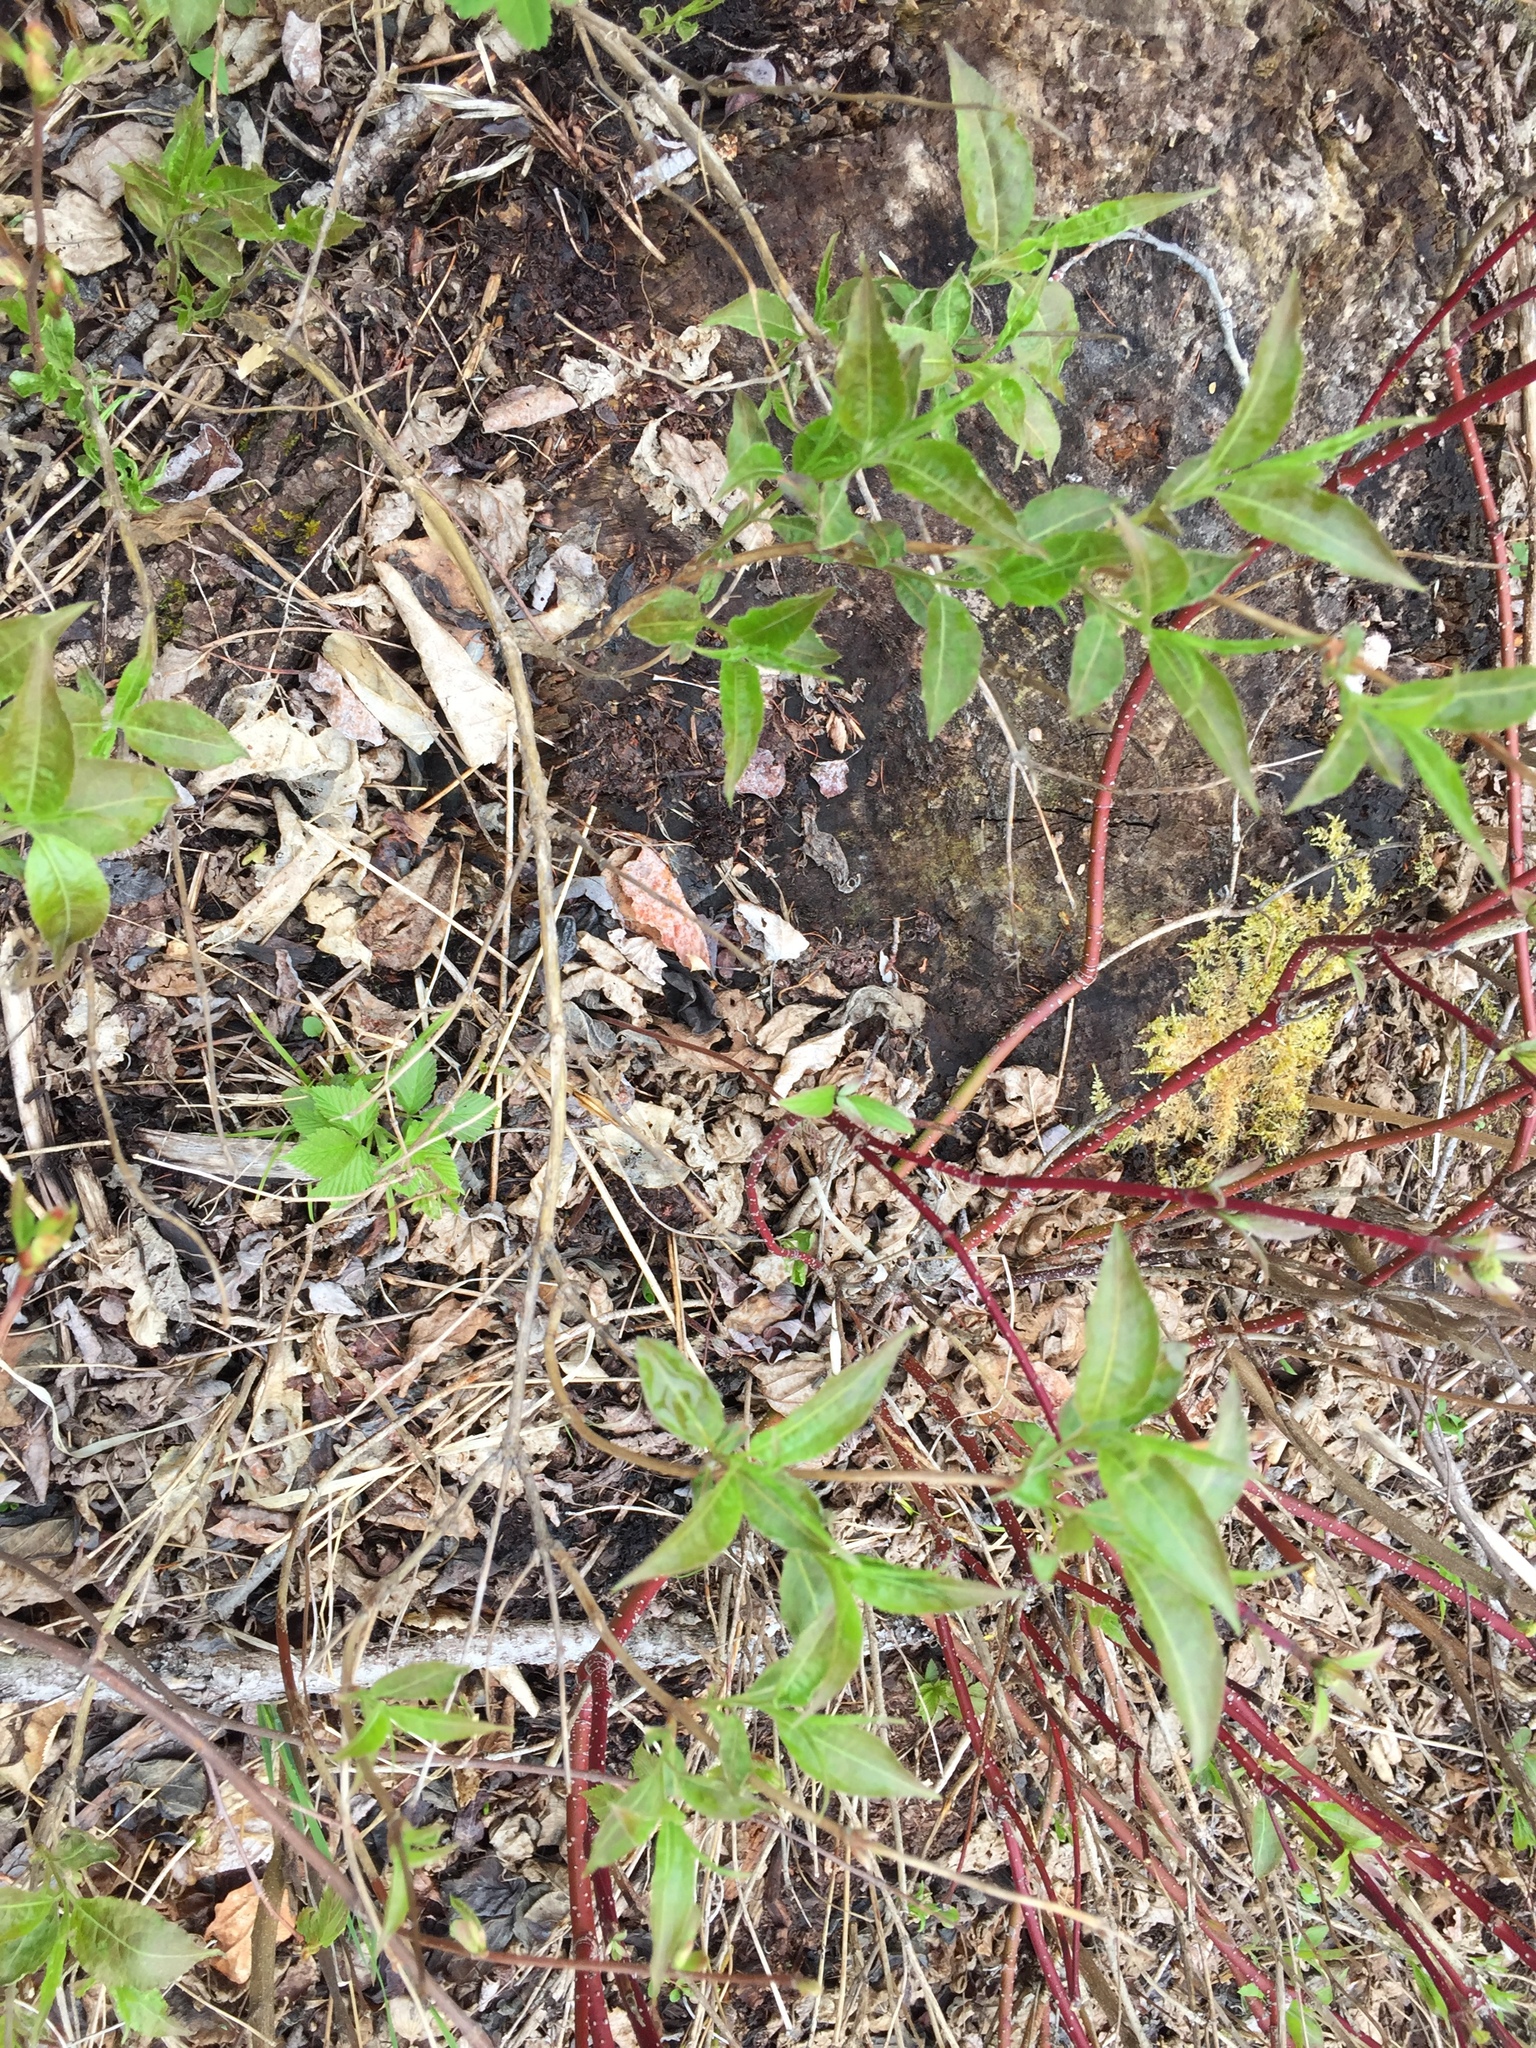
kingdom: Plantae
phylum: Tracheophyta
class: Magnoliopsida
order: Dipsacales
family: Caprifoliaceae
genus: Diervilla
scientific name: Diervilla lonicera
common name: Bush-honeysuckle
